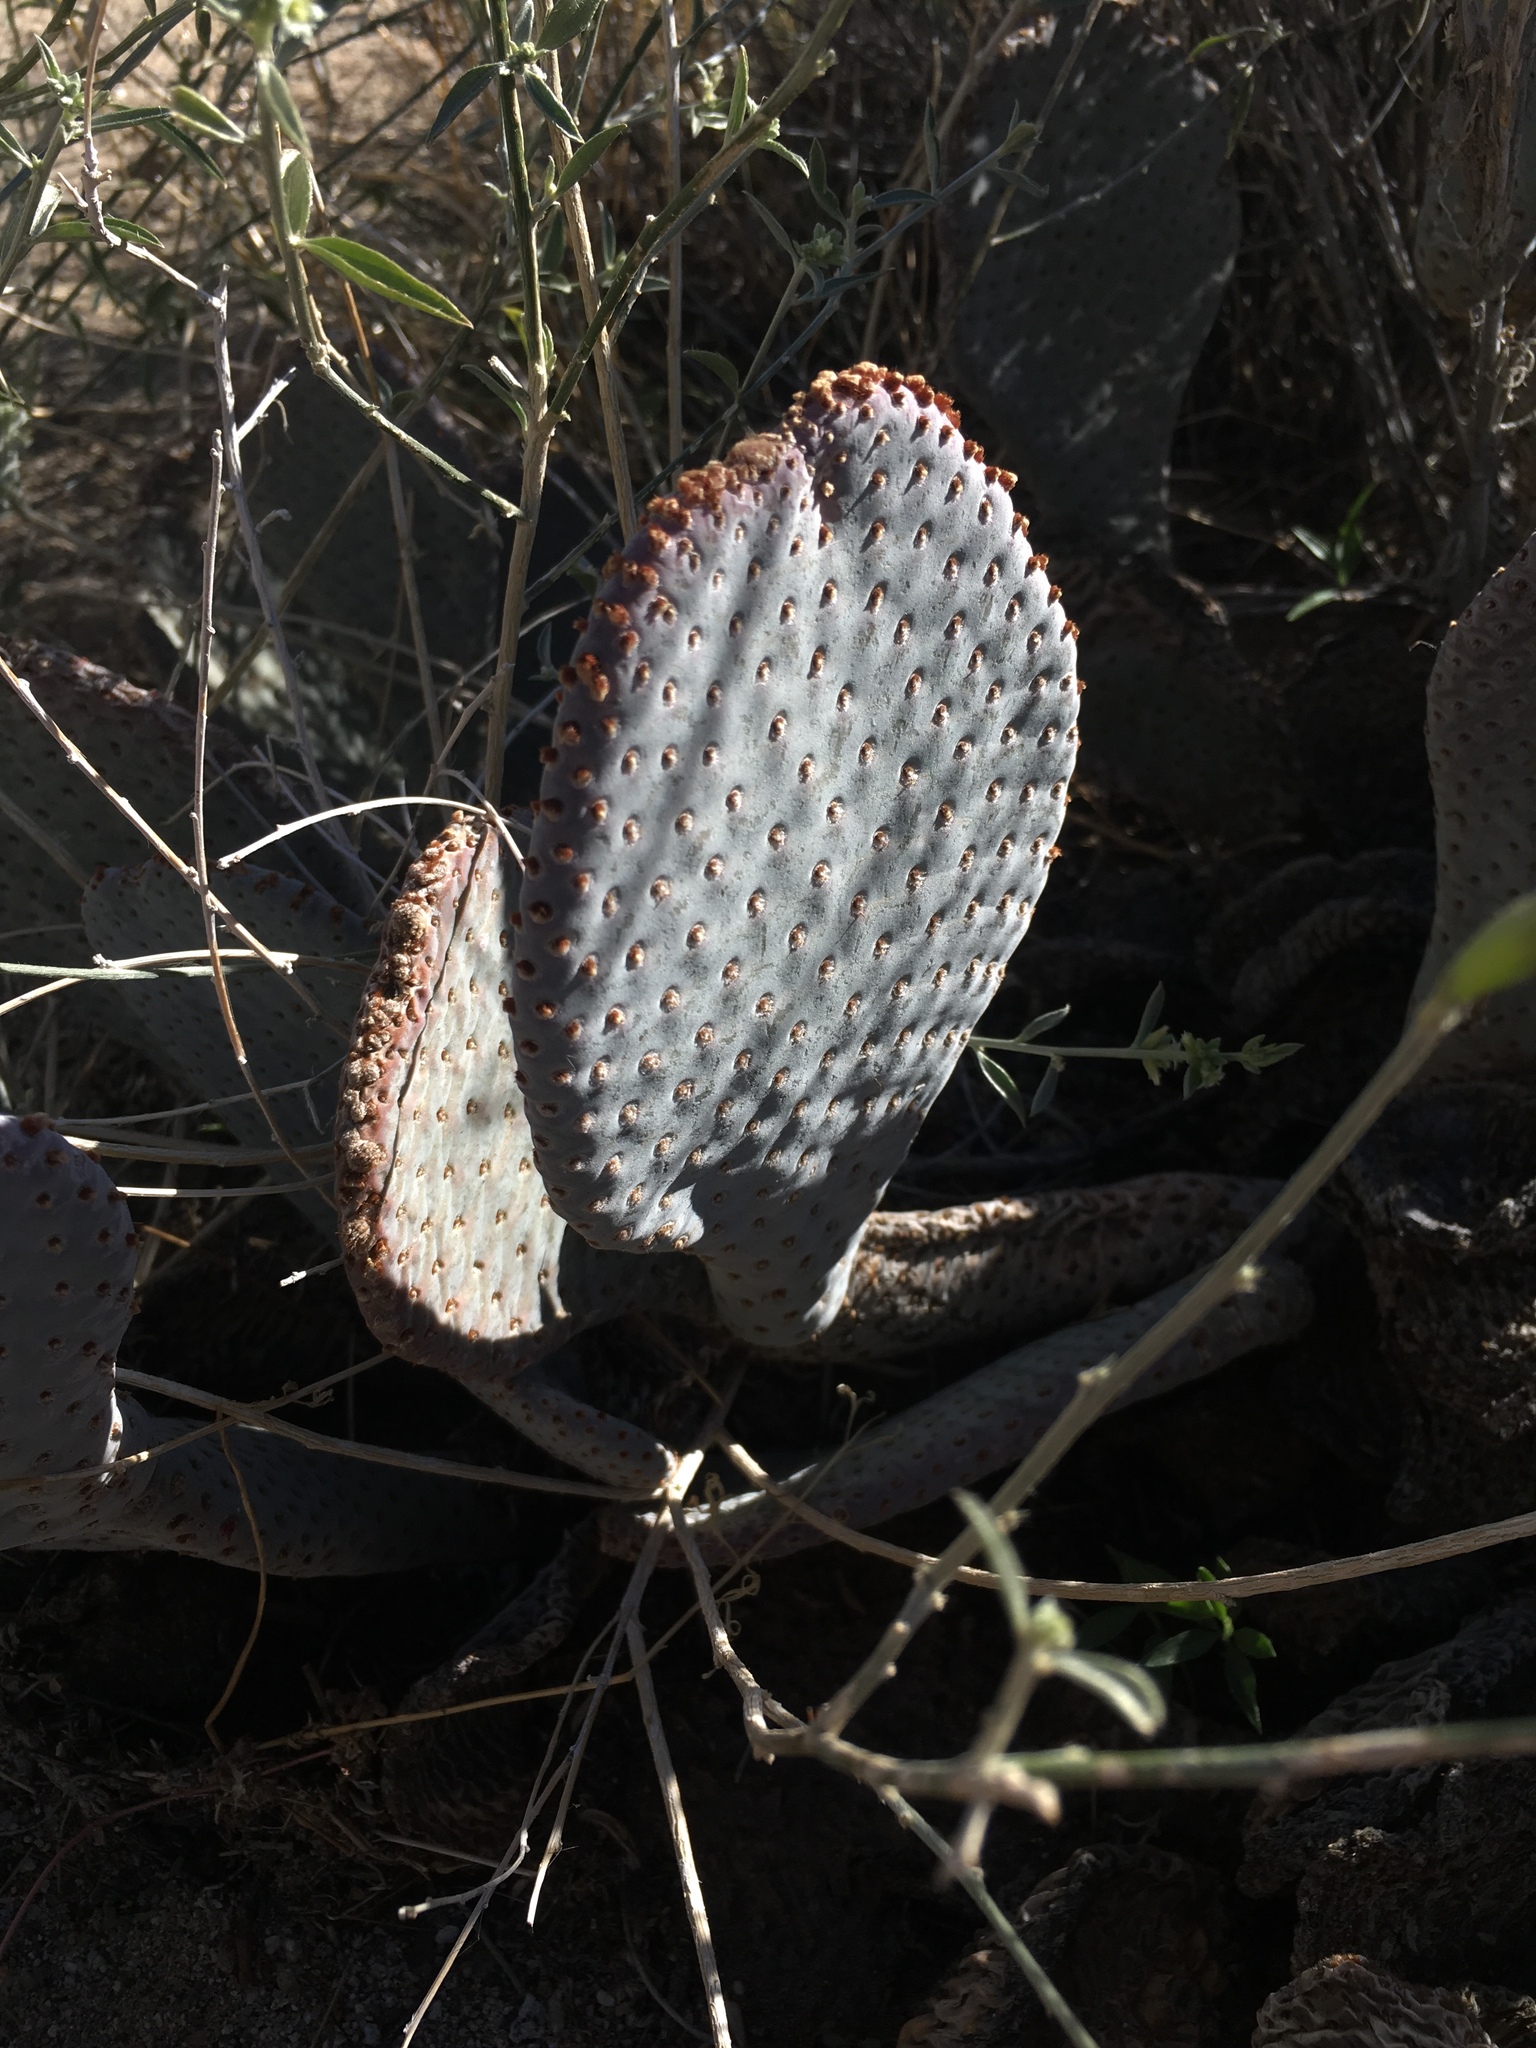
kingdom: Plantae
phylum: Tracheophyta
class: Magnoliopsida
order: Caryophyllales
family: Cactaceae
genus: Opuntia
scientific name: Opuntia basilaris
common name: Beavertail prickly-pear
